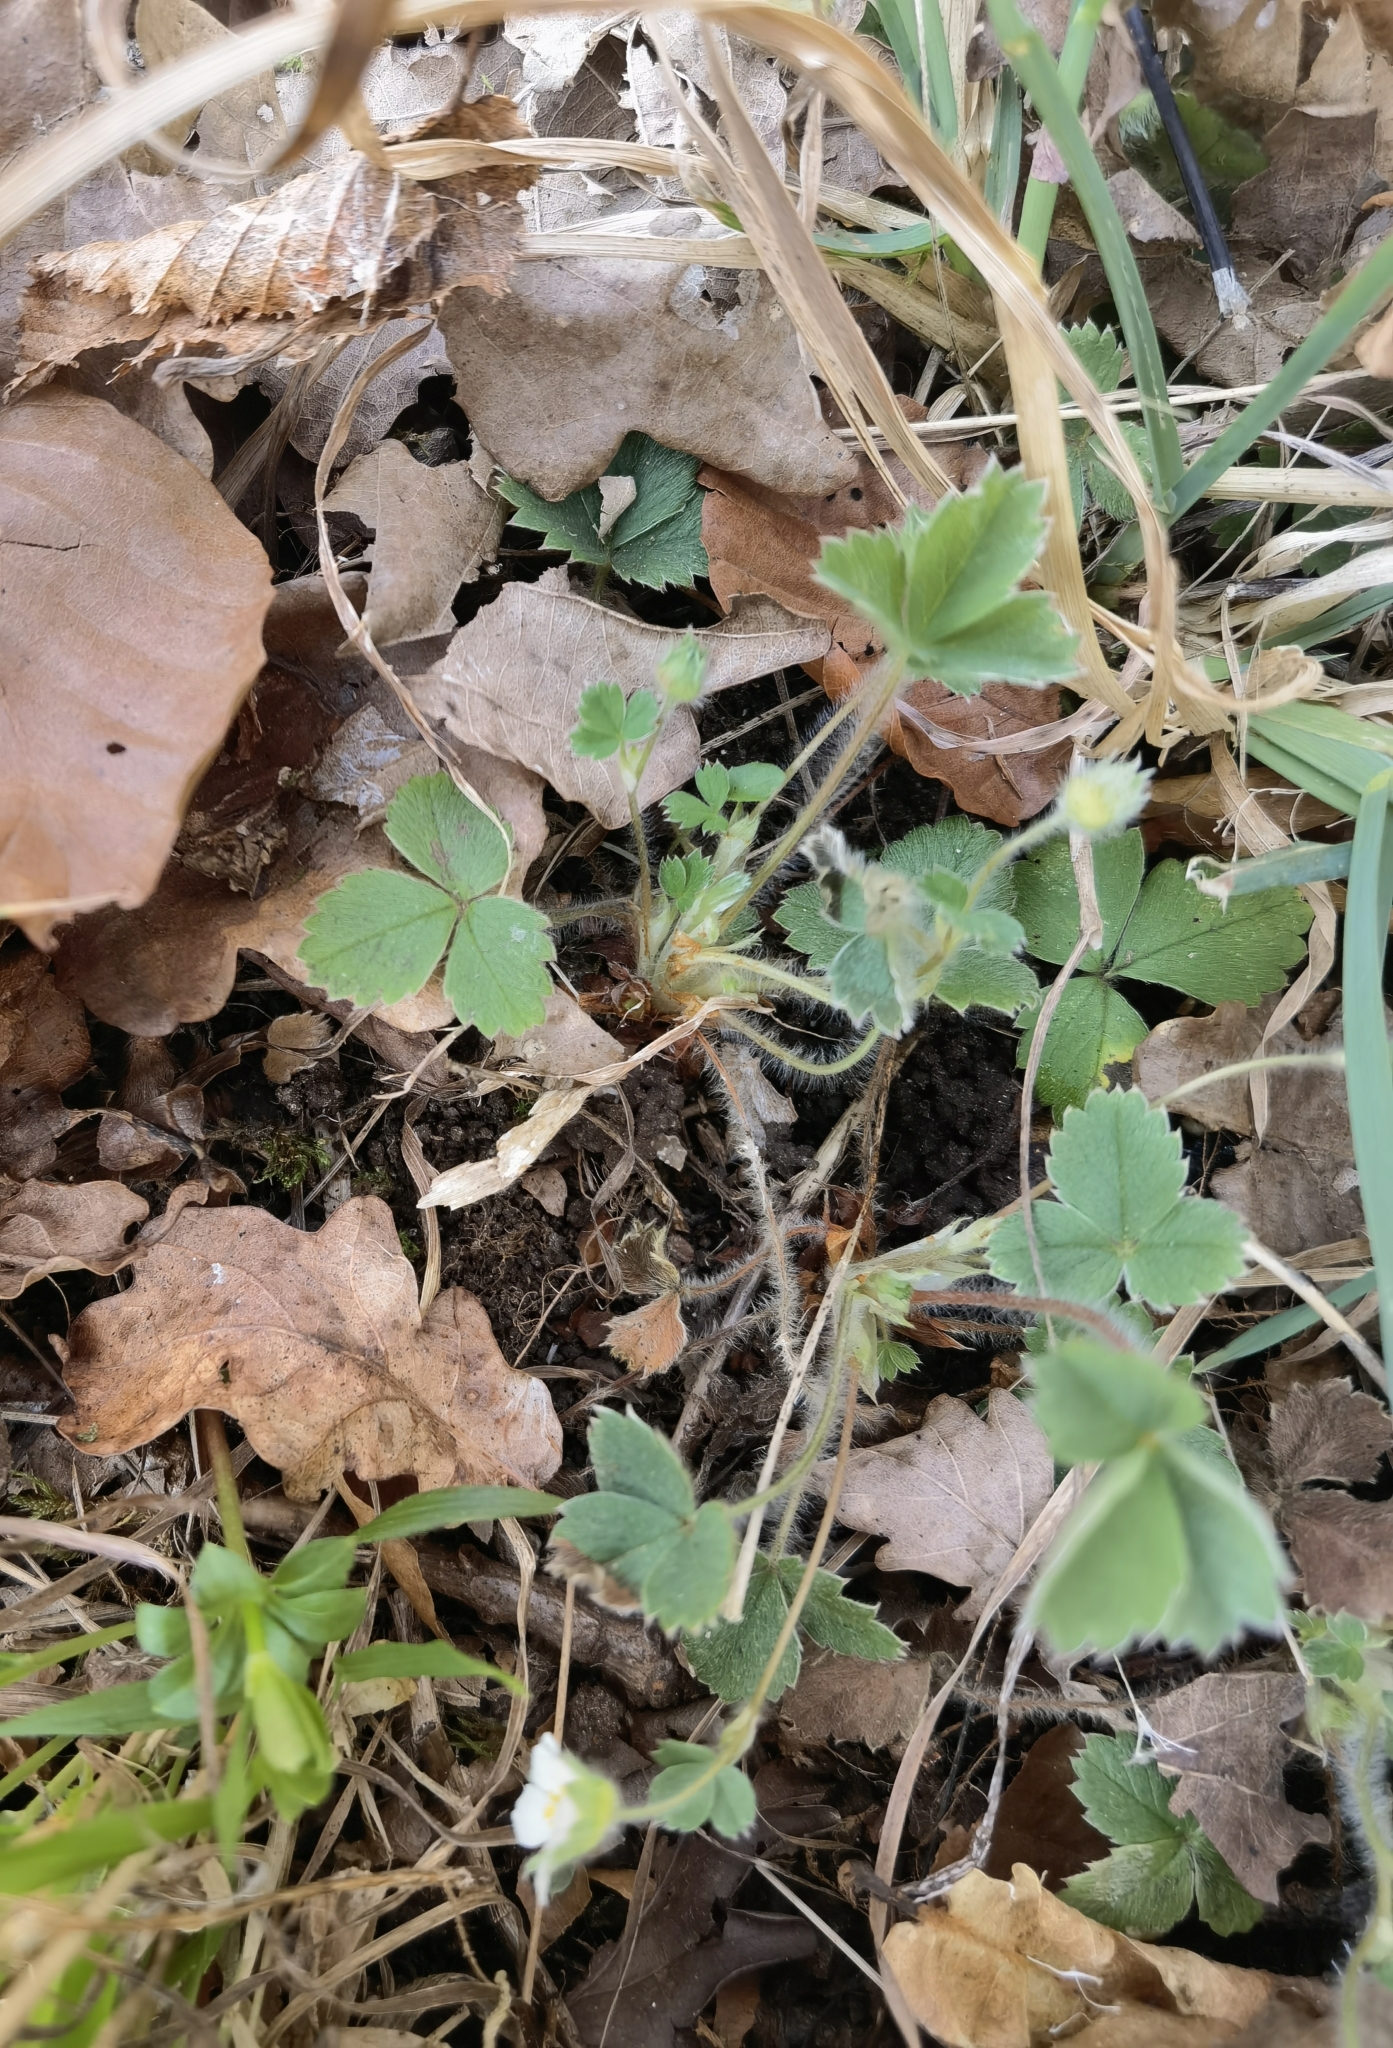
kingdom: Plantae
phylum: Tracheophyta
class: Magnoliopsida
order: Rosales
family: Rosaceae
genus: Potentilla
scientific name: Potentilla sterilis
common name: Barren strawberry
